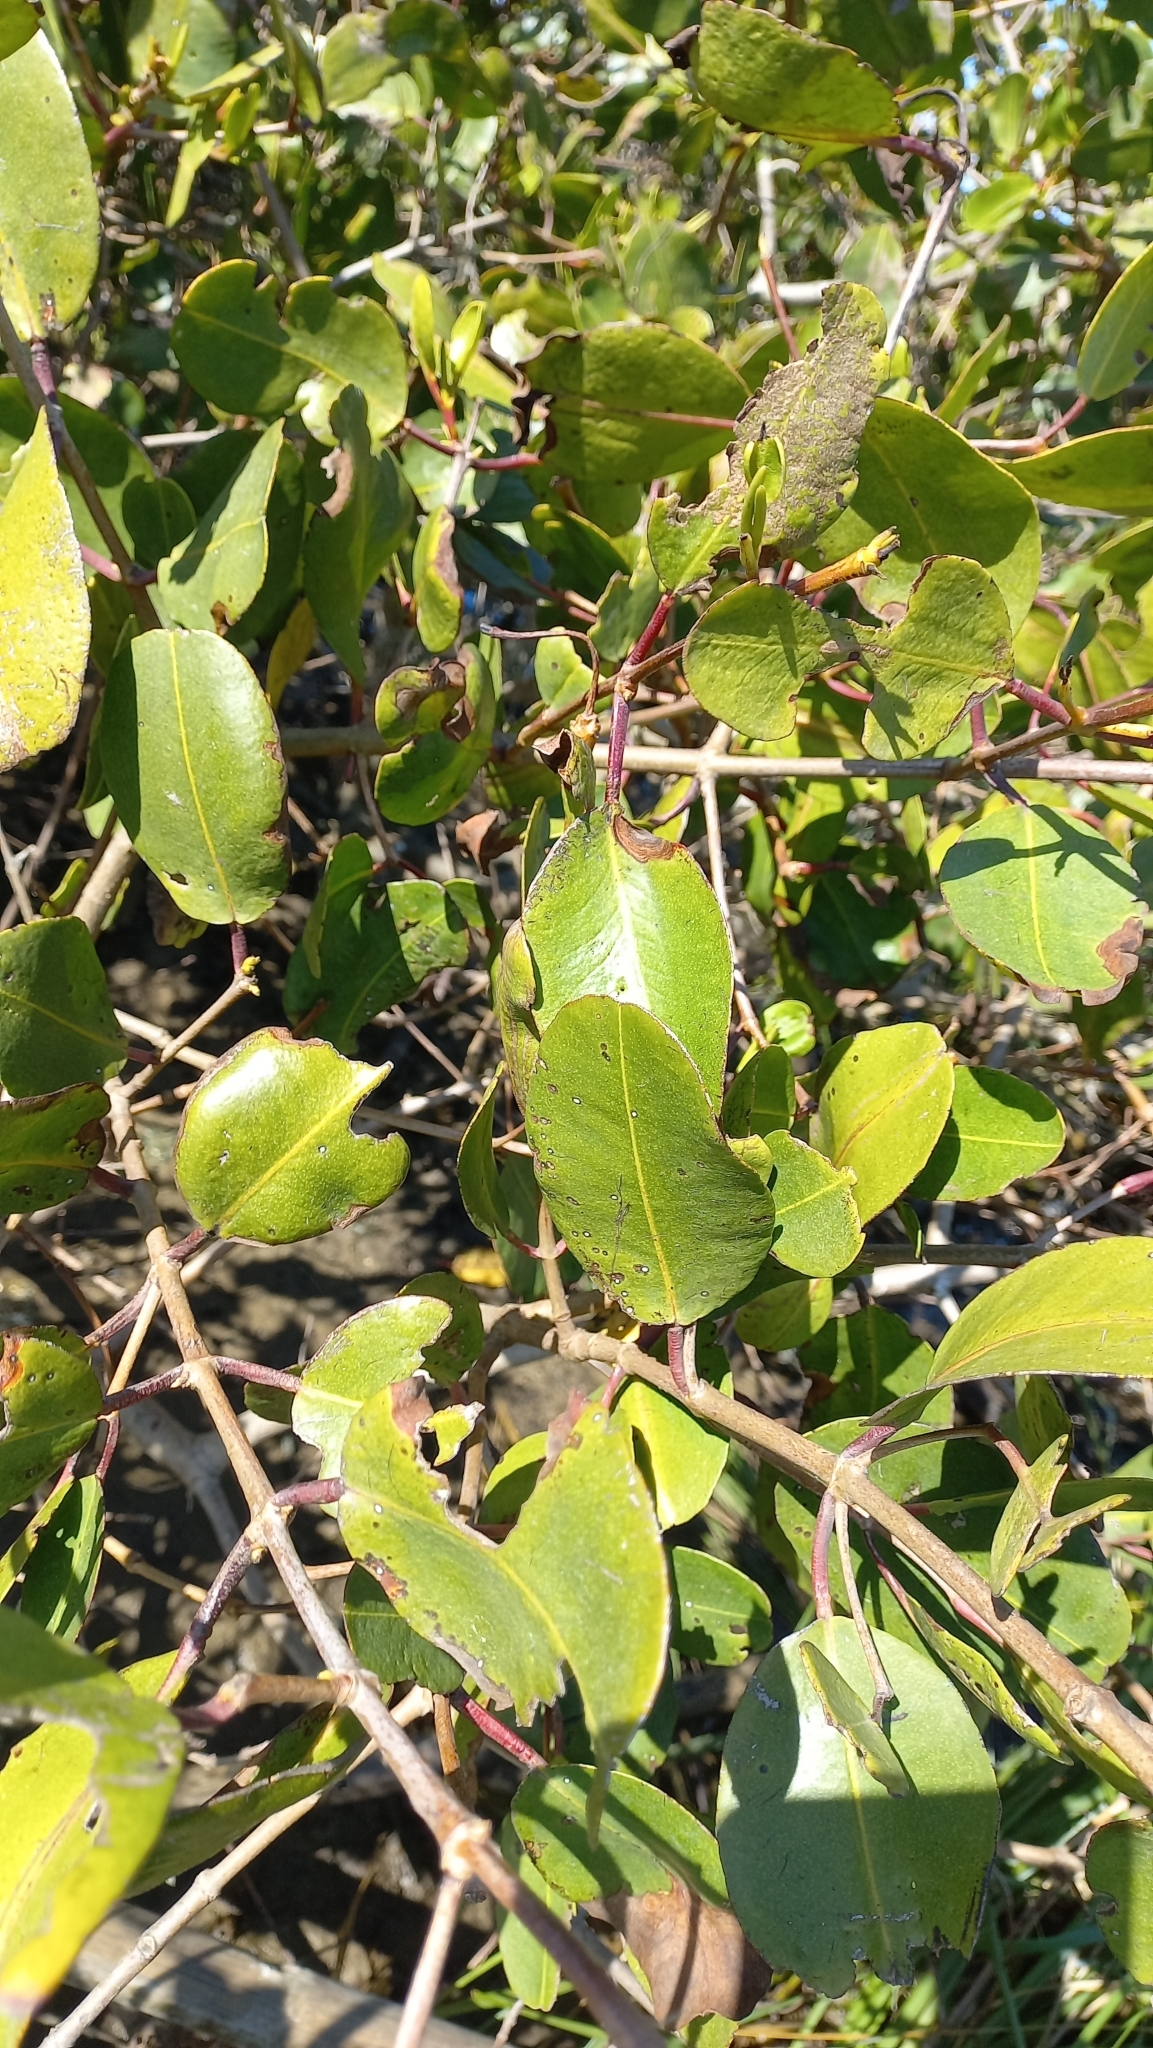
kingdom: Plantae
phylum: Tracheophyta
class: Magnoliopsida
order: Myrtales
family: Combretaceae
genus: Laguncularia
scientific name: Laguncularia racemosa
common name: White mangrove
